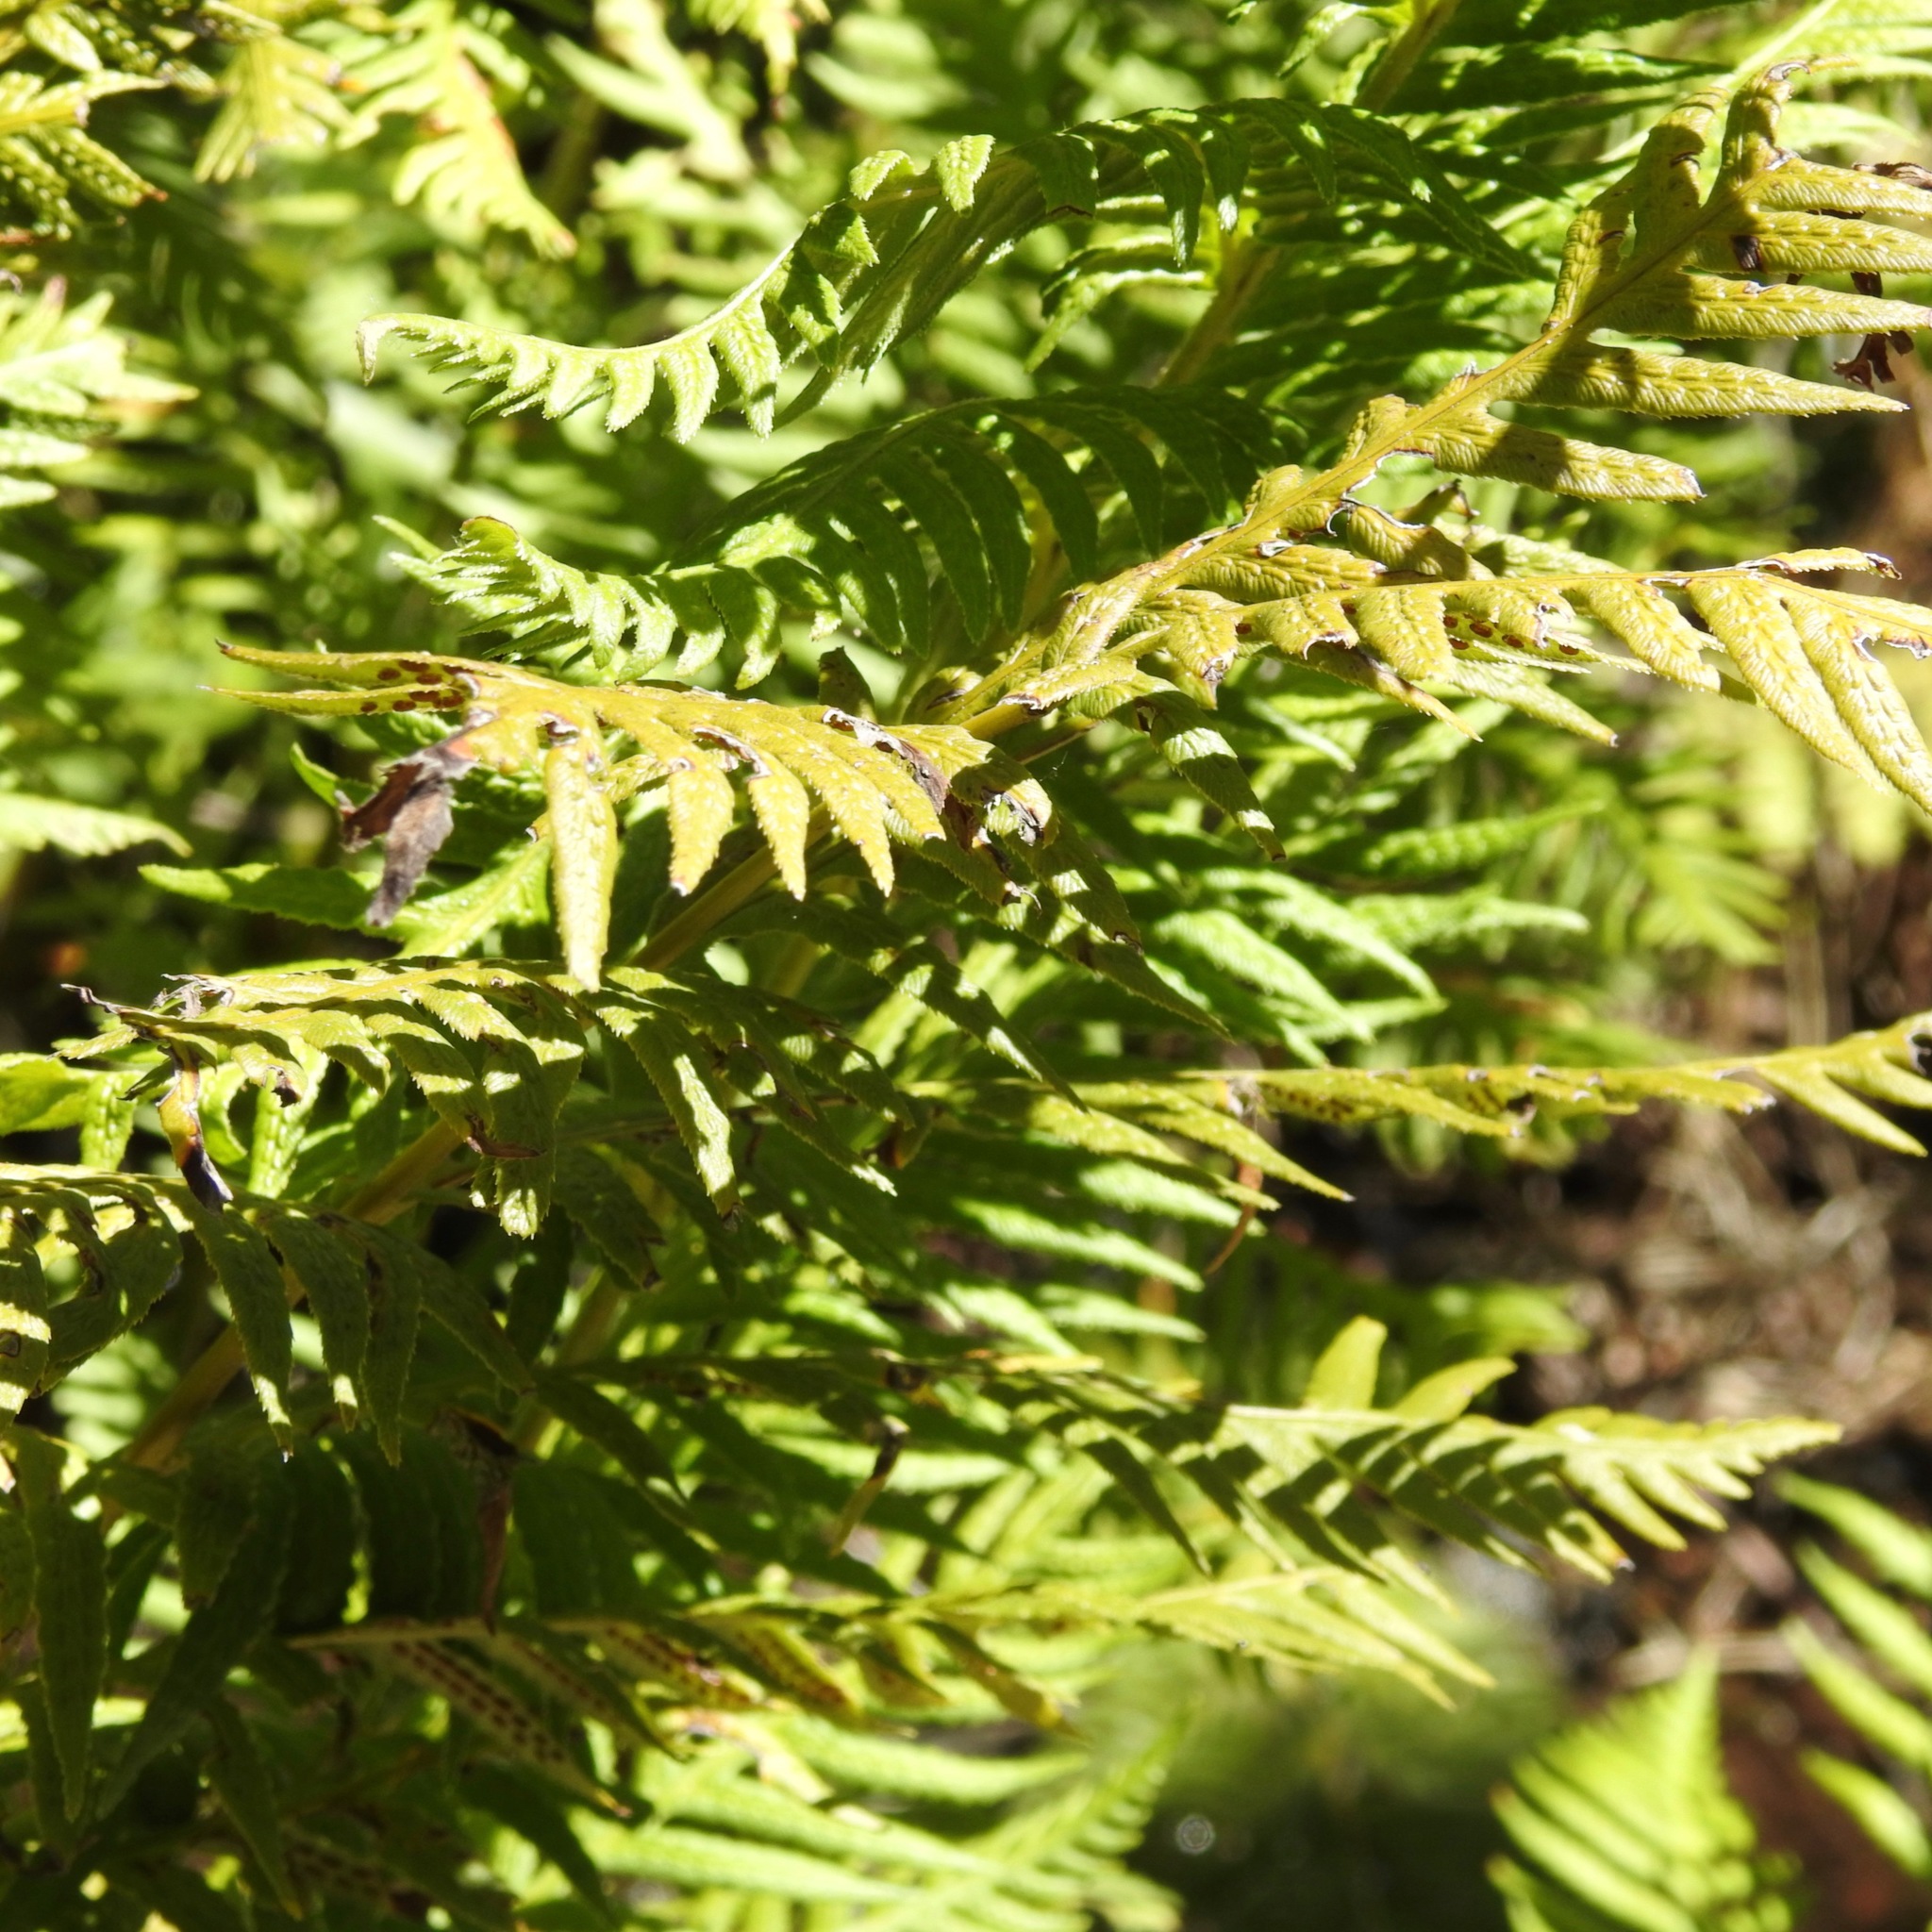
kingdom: Plantae
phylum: Tracheophyta
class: Polypodiopsida
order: Polypodiales
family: Blechnaceae
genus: Woodwardia
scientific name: Woodwardia fimbriata
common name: Giant chain fern
